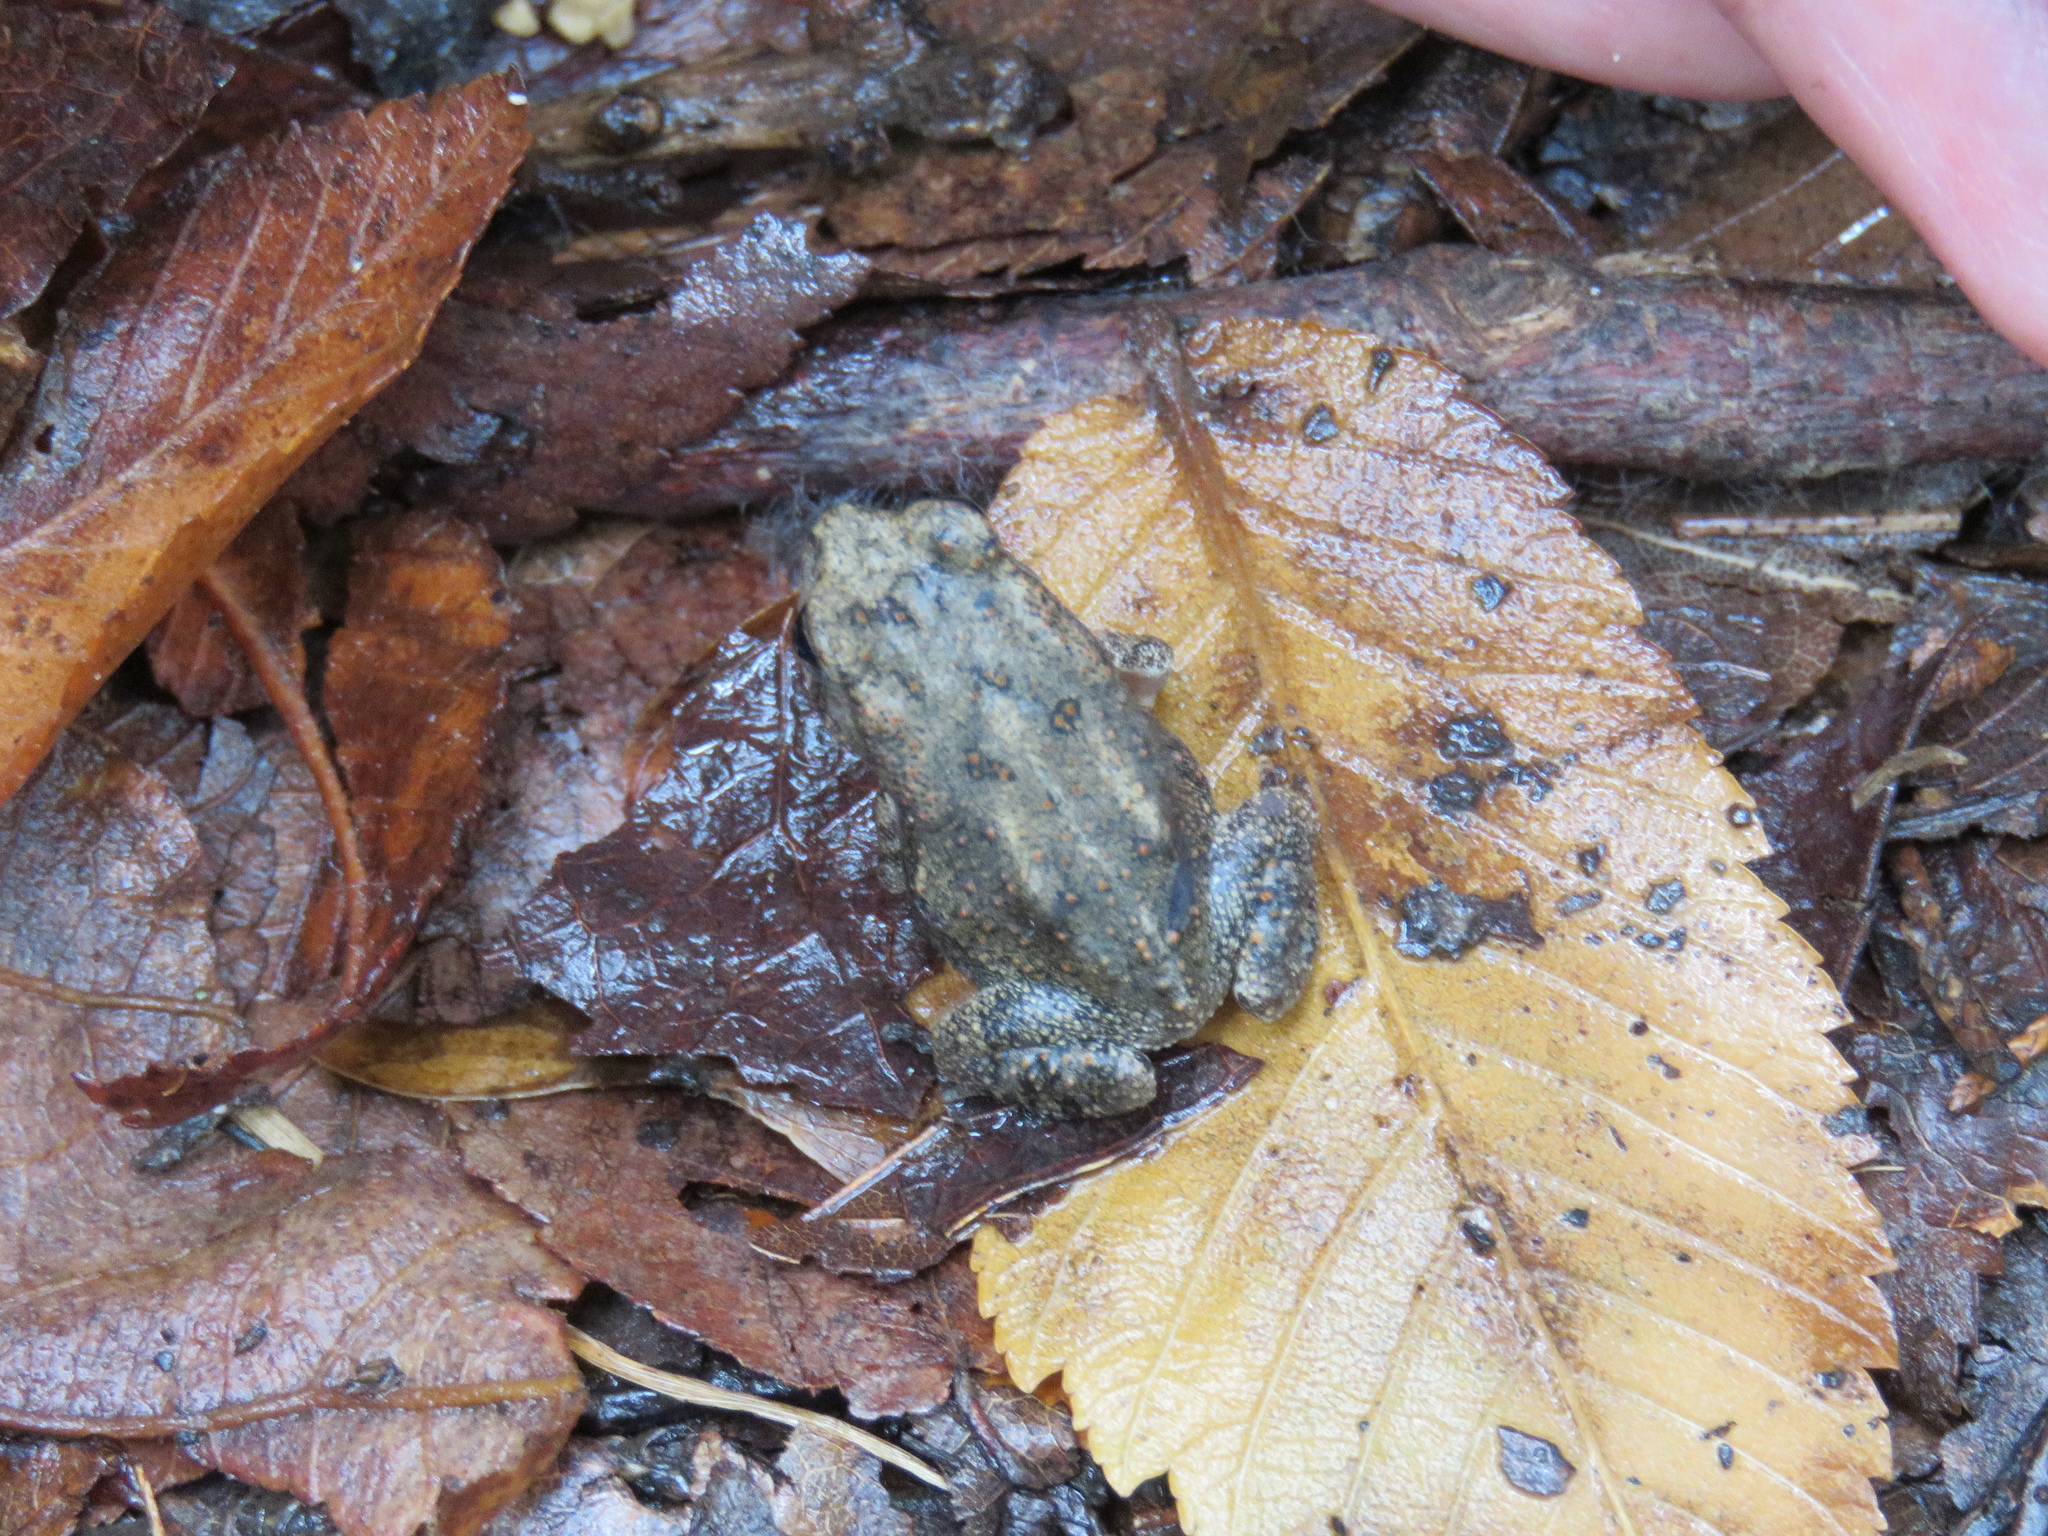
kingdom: Animalia
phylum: Chordata
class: Amphibia
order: Anura
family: Bufonidae
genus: Incilius
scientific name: Incilius nebulifer
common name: Gulf coast toad
